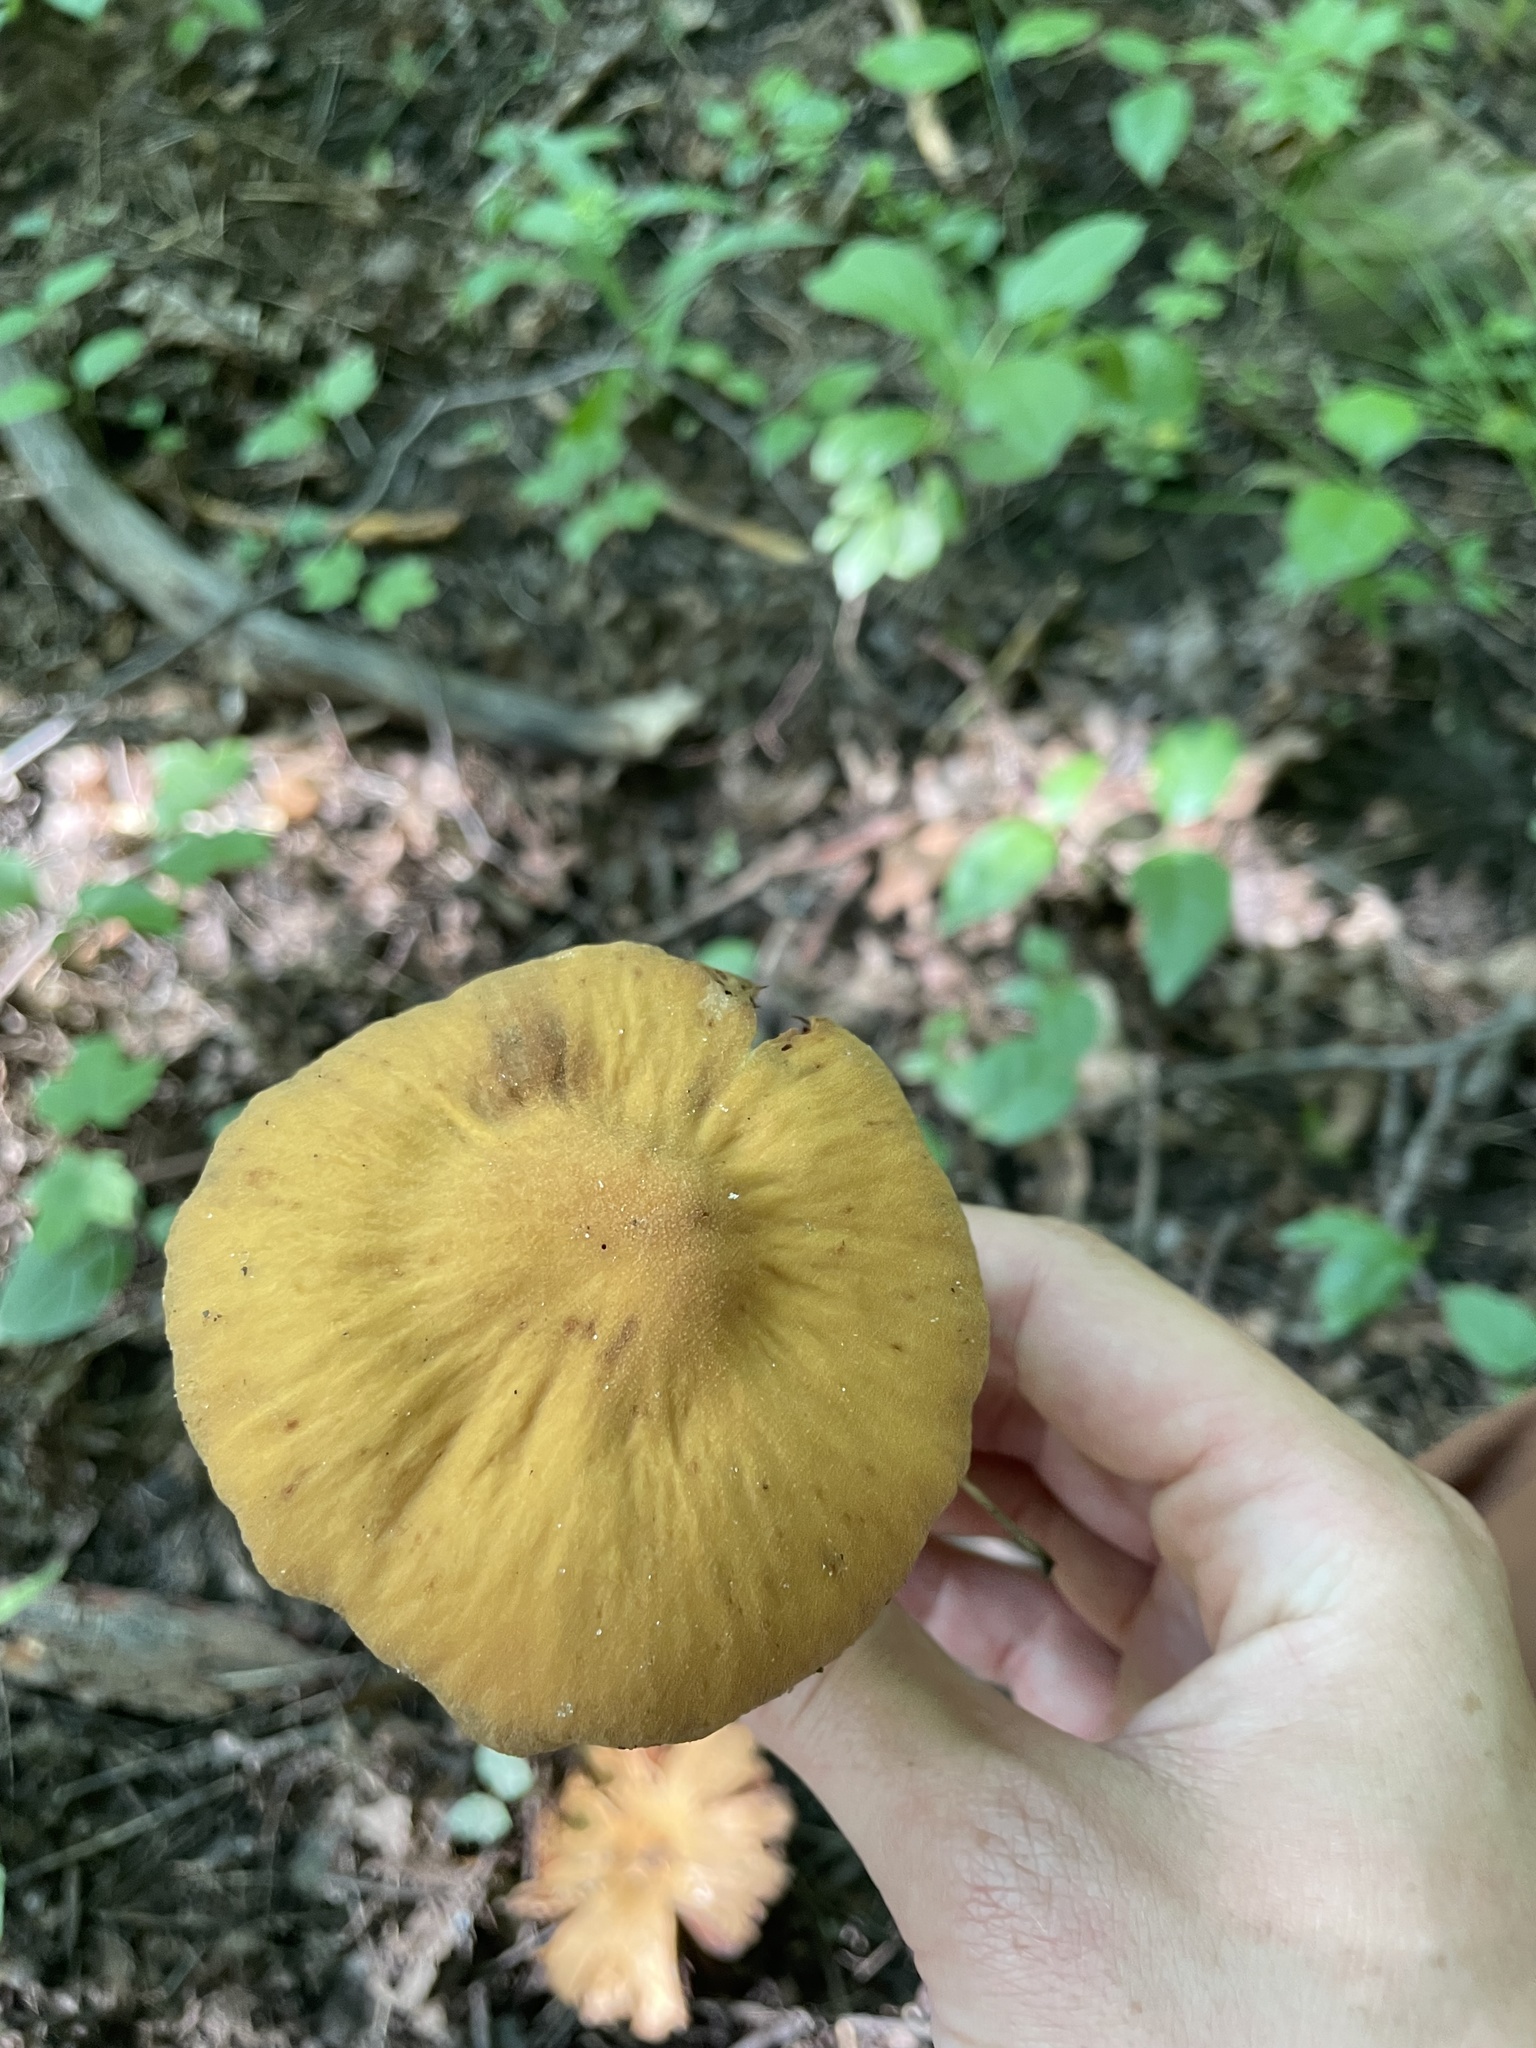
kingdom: Fungi
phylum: Basidiomycota
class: Agaricomycetes
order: Agaricales
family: Cortinariaceae
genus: Cortinarius
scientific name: Cortinarius
